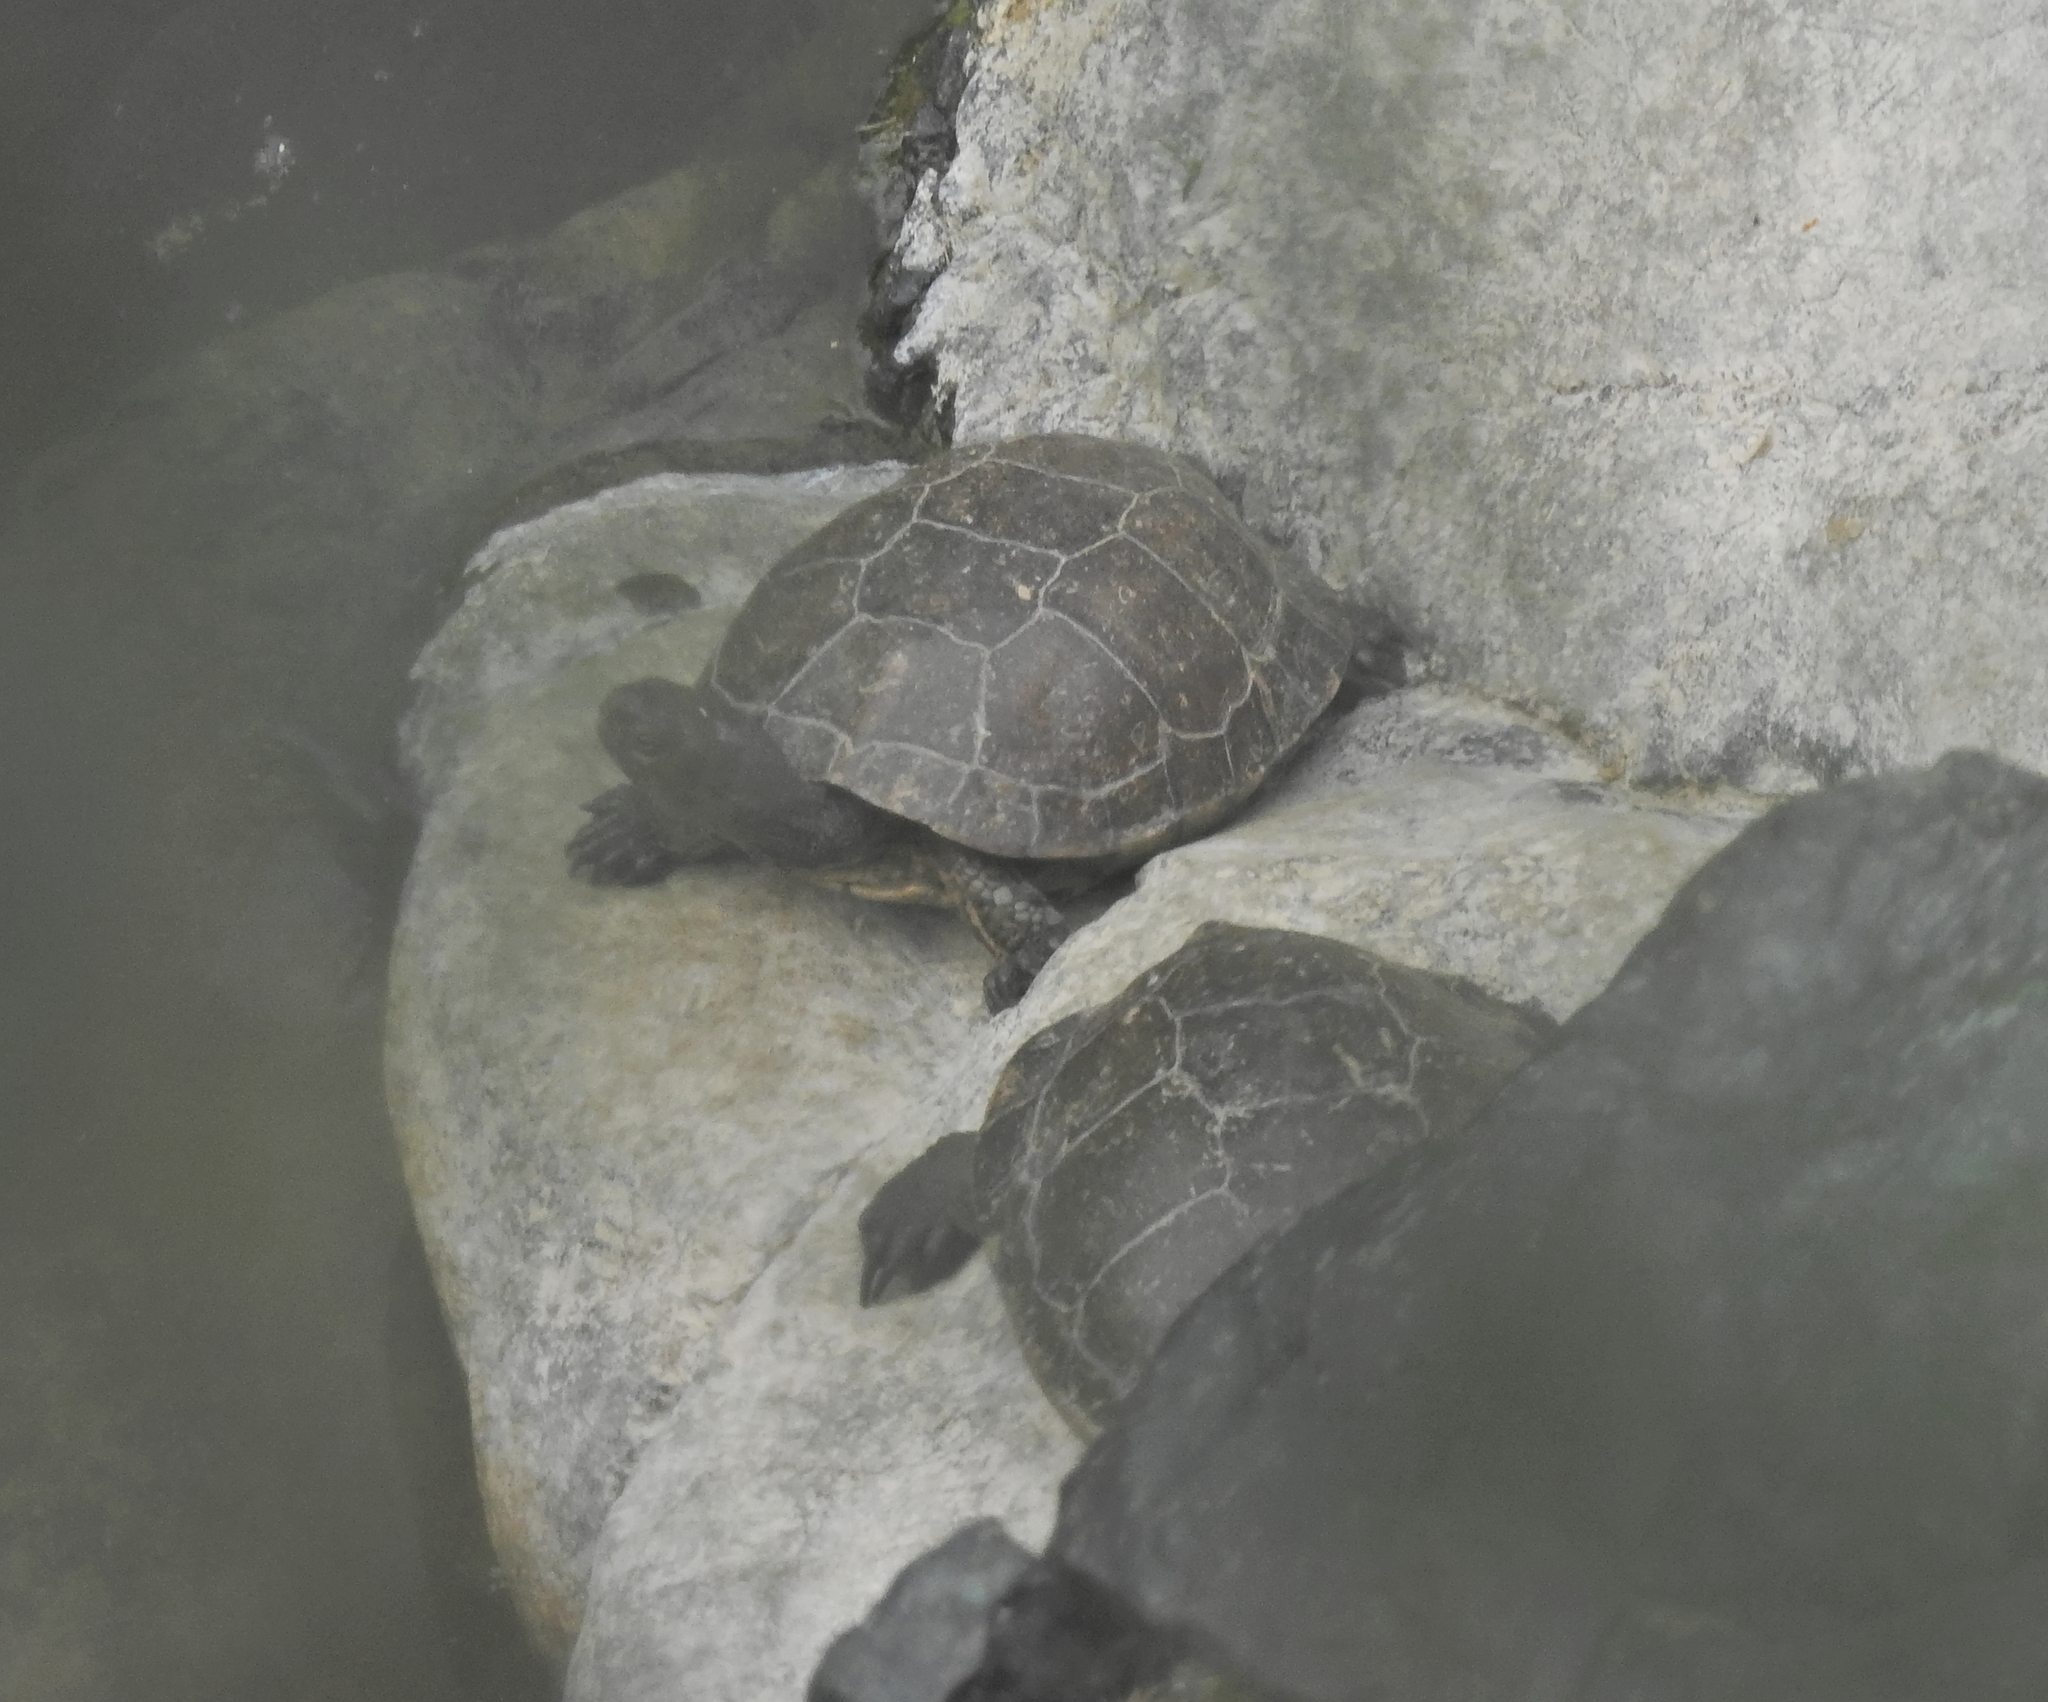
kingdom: Animalia
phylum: Chordata
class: Testudines
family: Geoemydidae
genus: Mauremys
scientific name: Mauremys leprosa
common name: Mediterranean pond turtle
